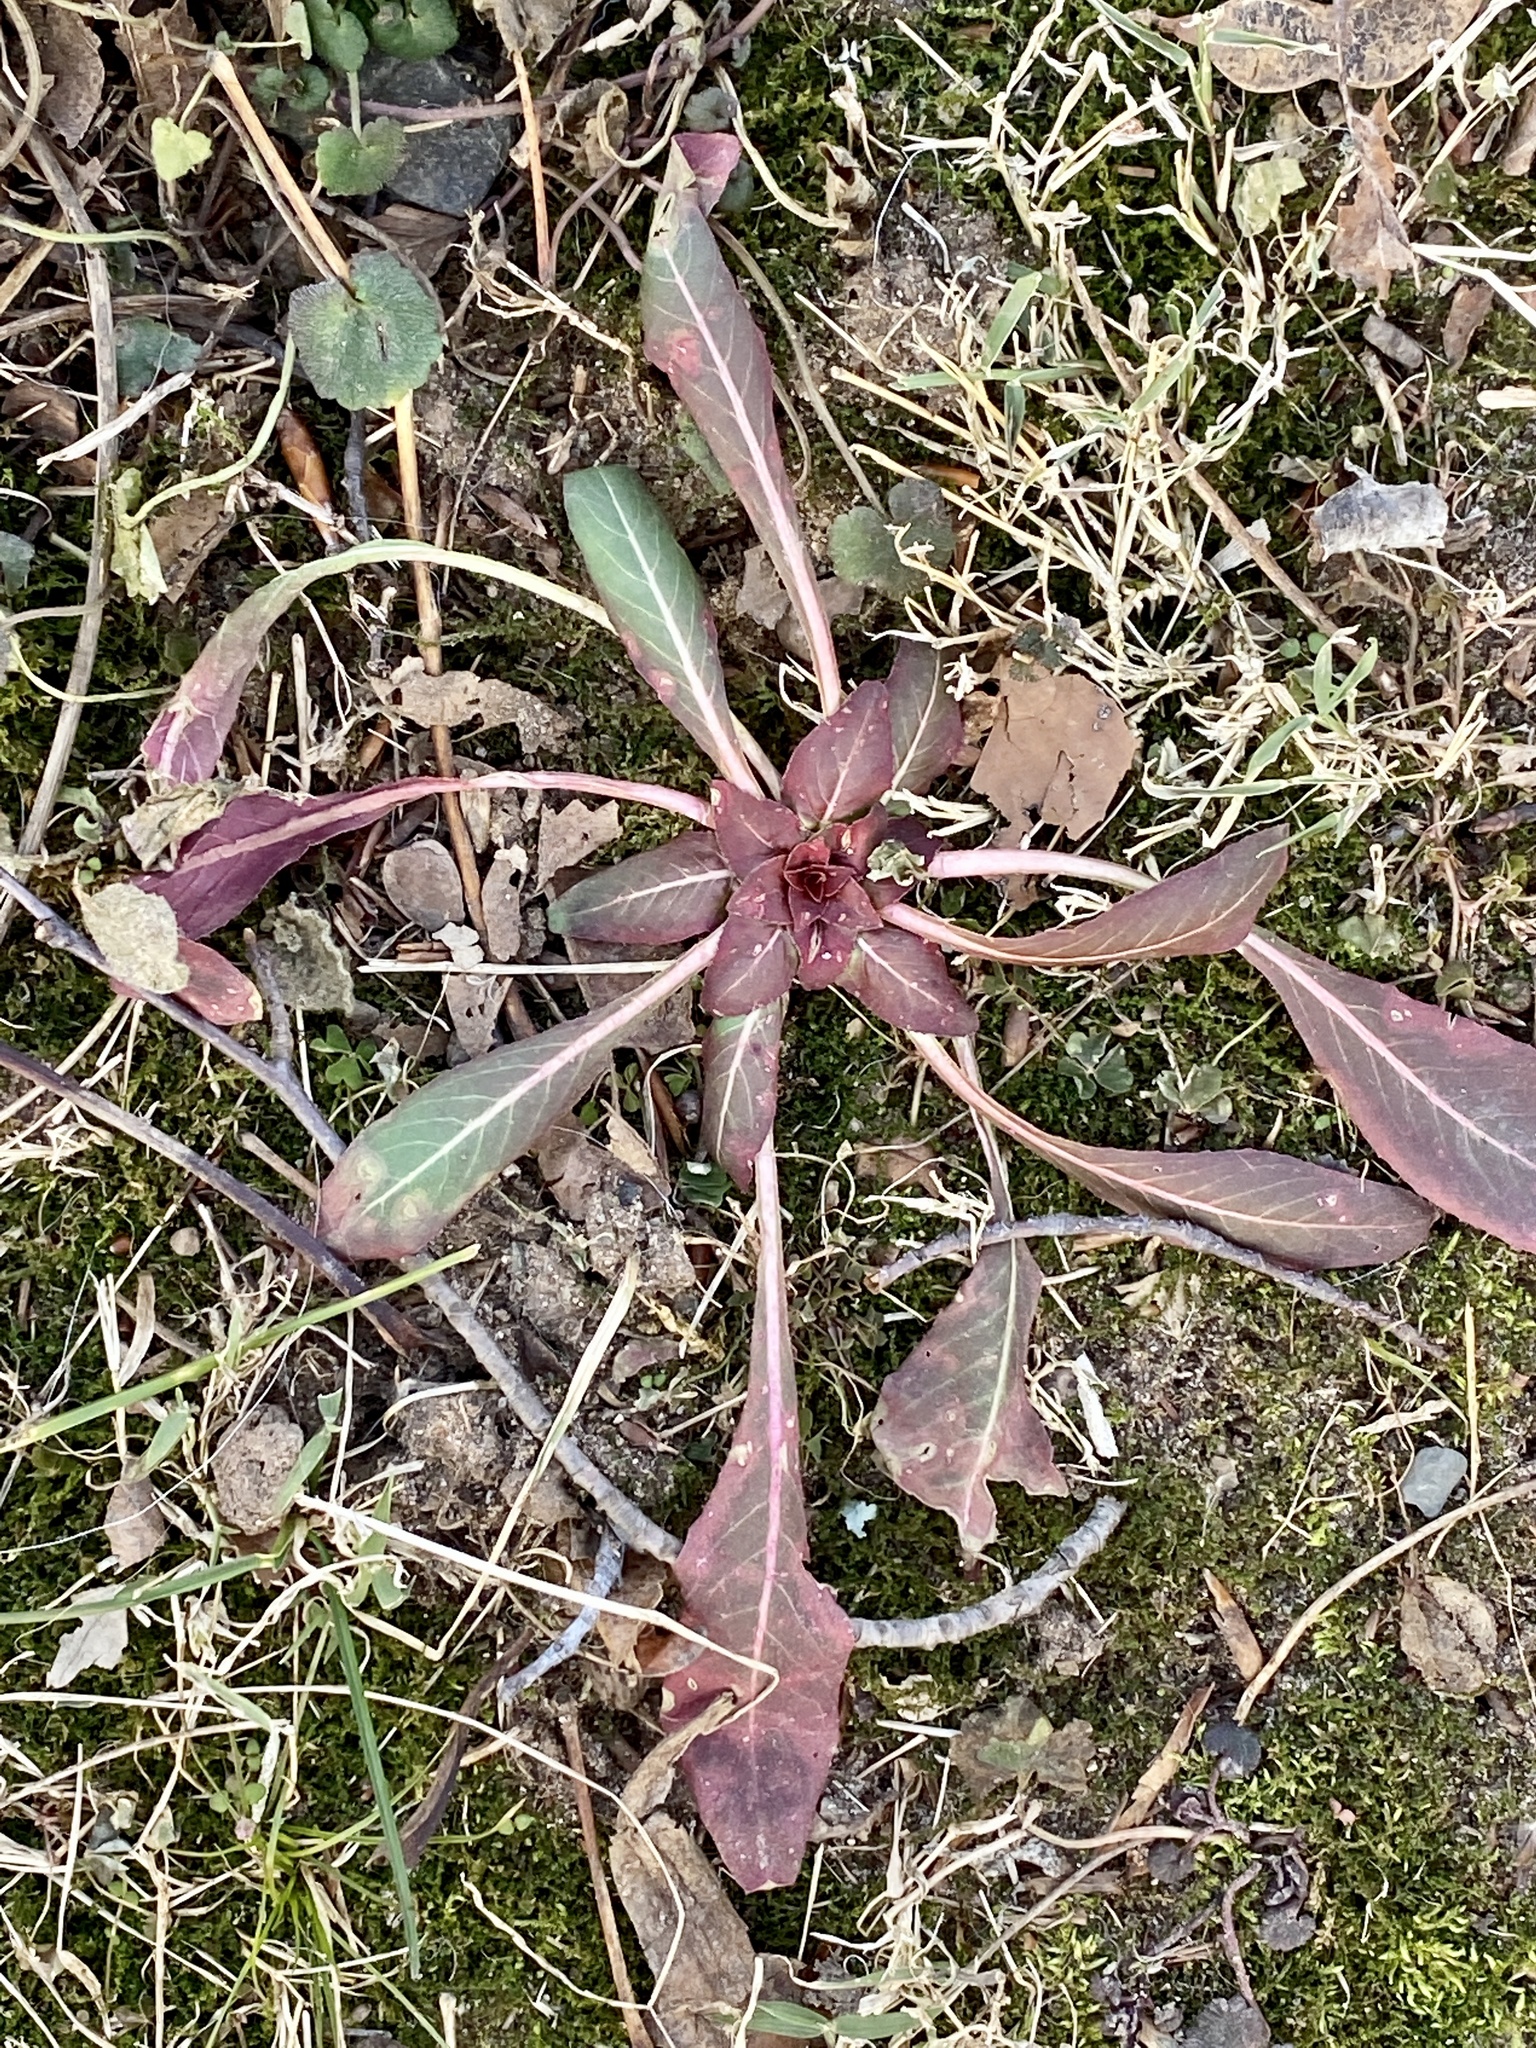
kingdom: Plantae
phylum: Tracheophyta
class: Magnoliopsida
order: Myrtales
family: Onagraceae
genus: Oenothera
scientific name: Oenothera biennis
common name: Common evening-primrose
